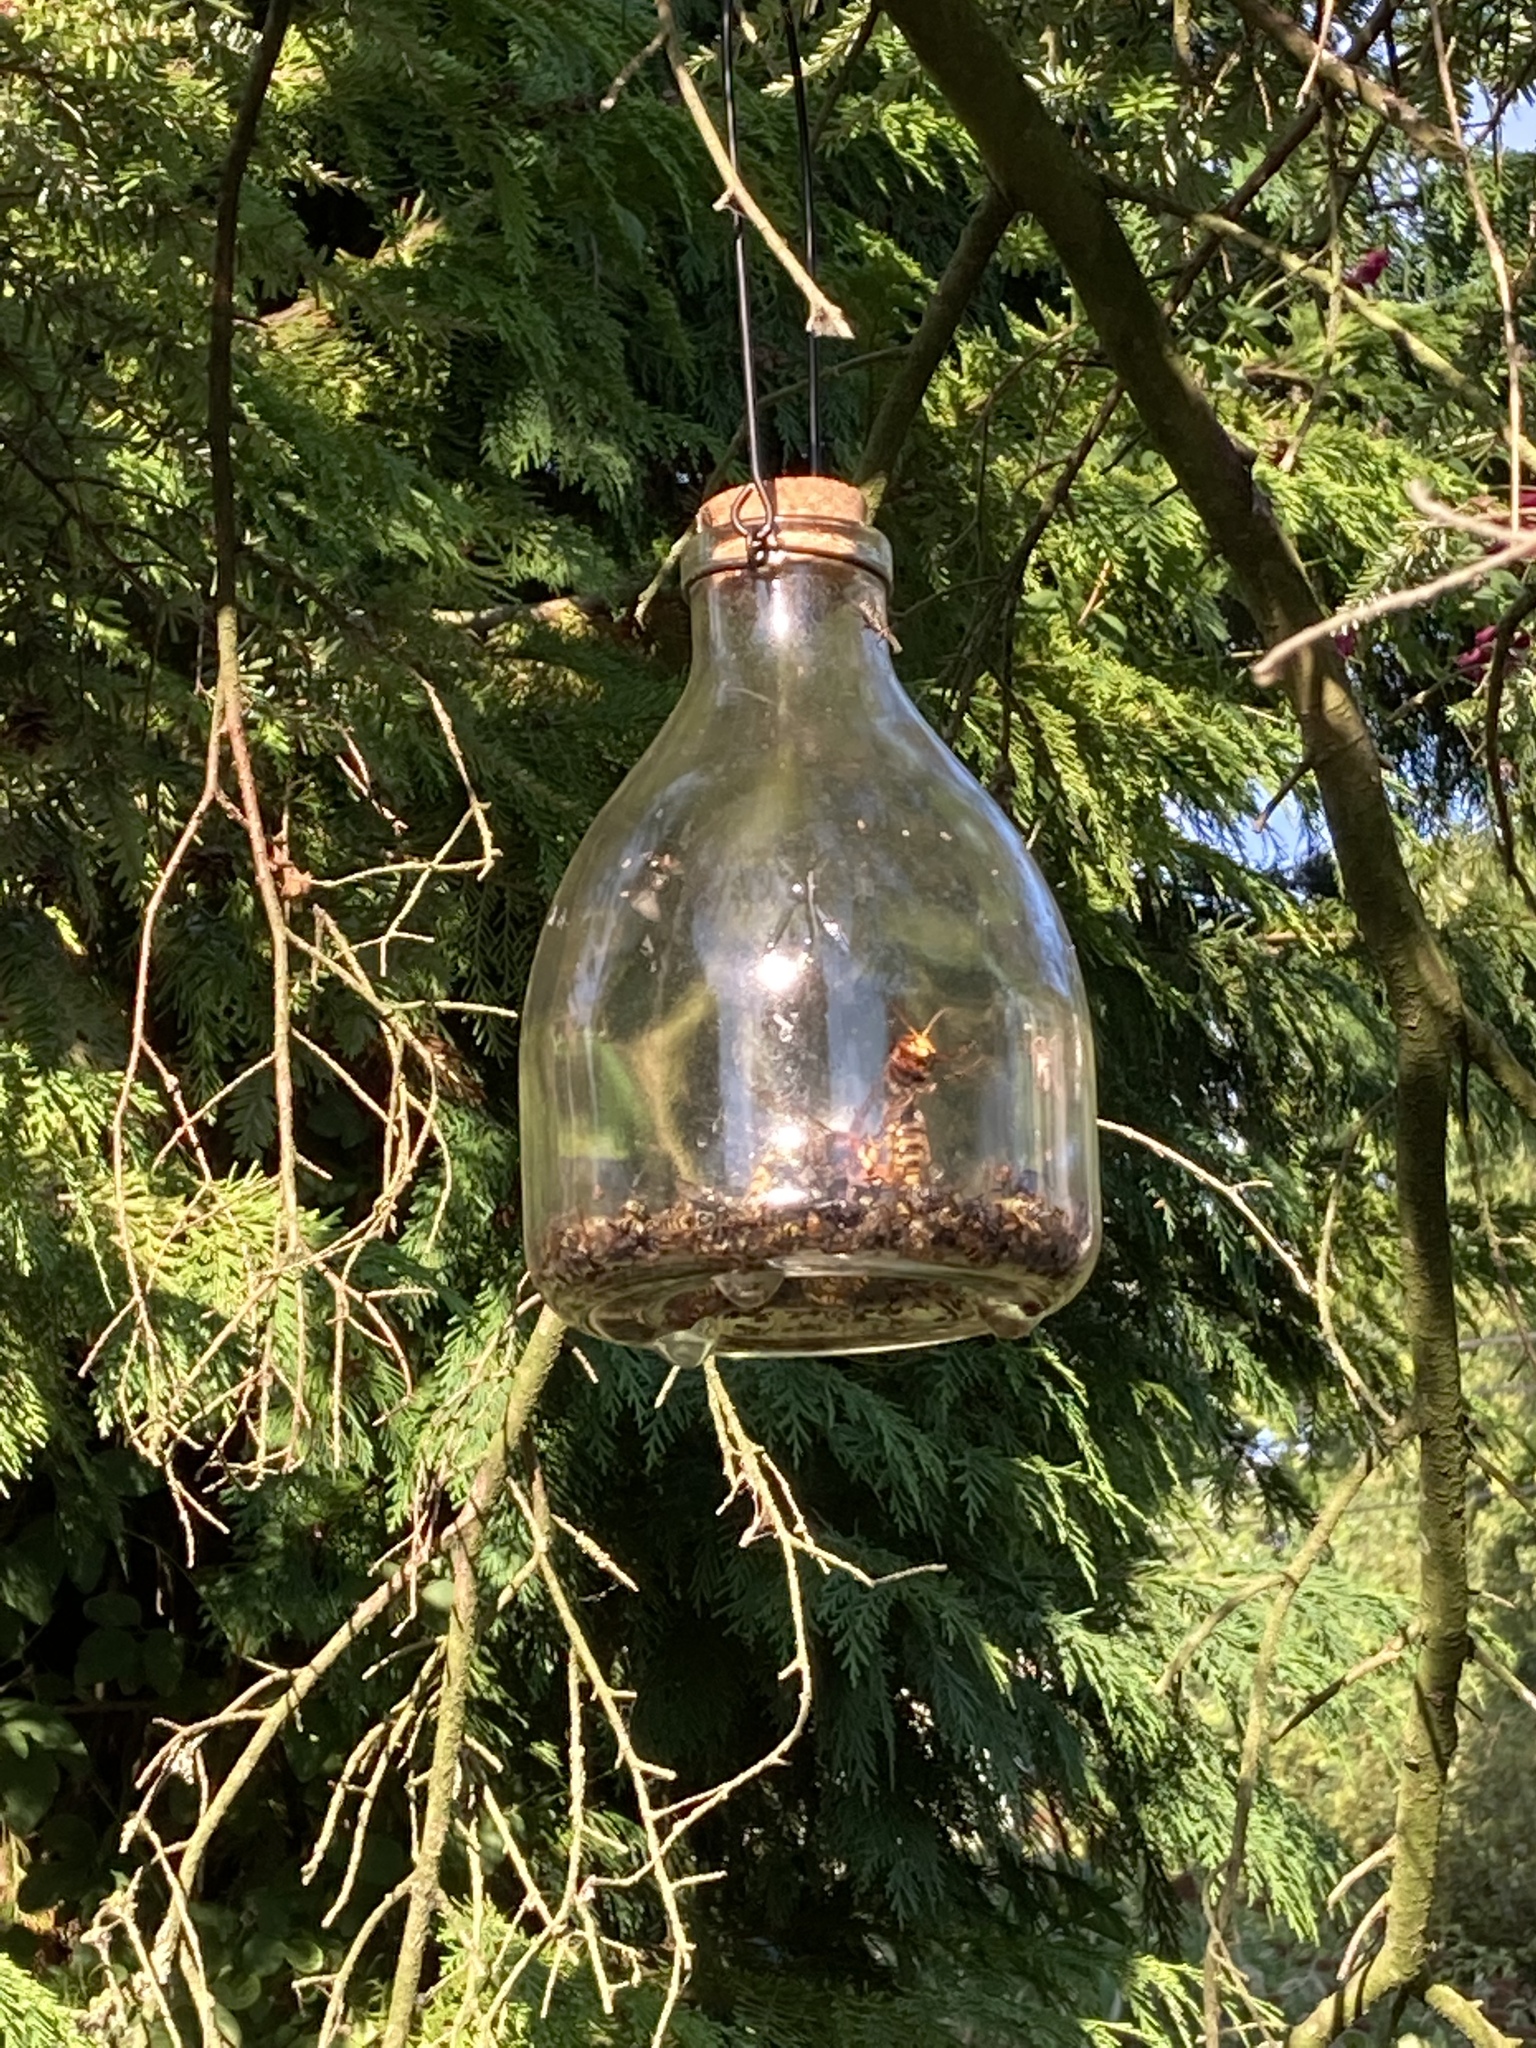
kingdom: Animalia
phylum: Arthropoda
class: Insecta
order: Hymenoptera
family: Vespidae
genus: Vespa
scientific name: Vespa crabro
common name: Hornet
